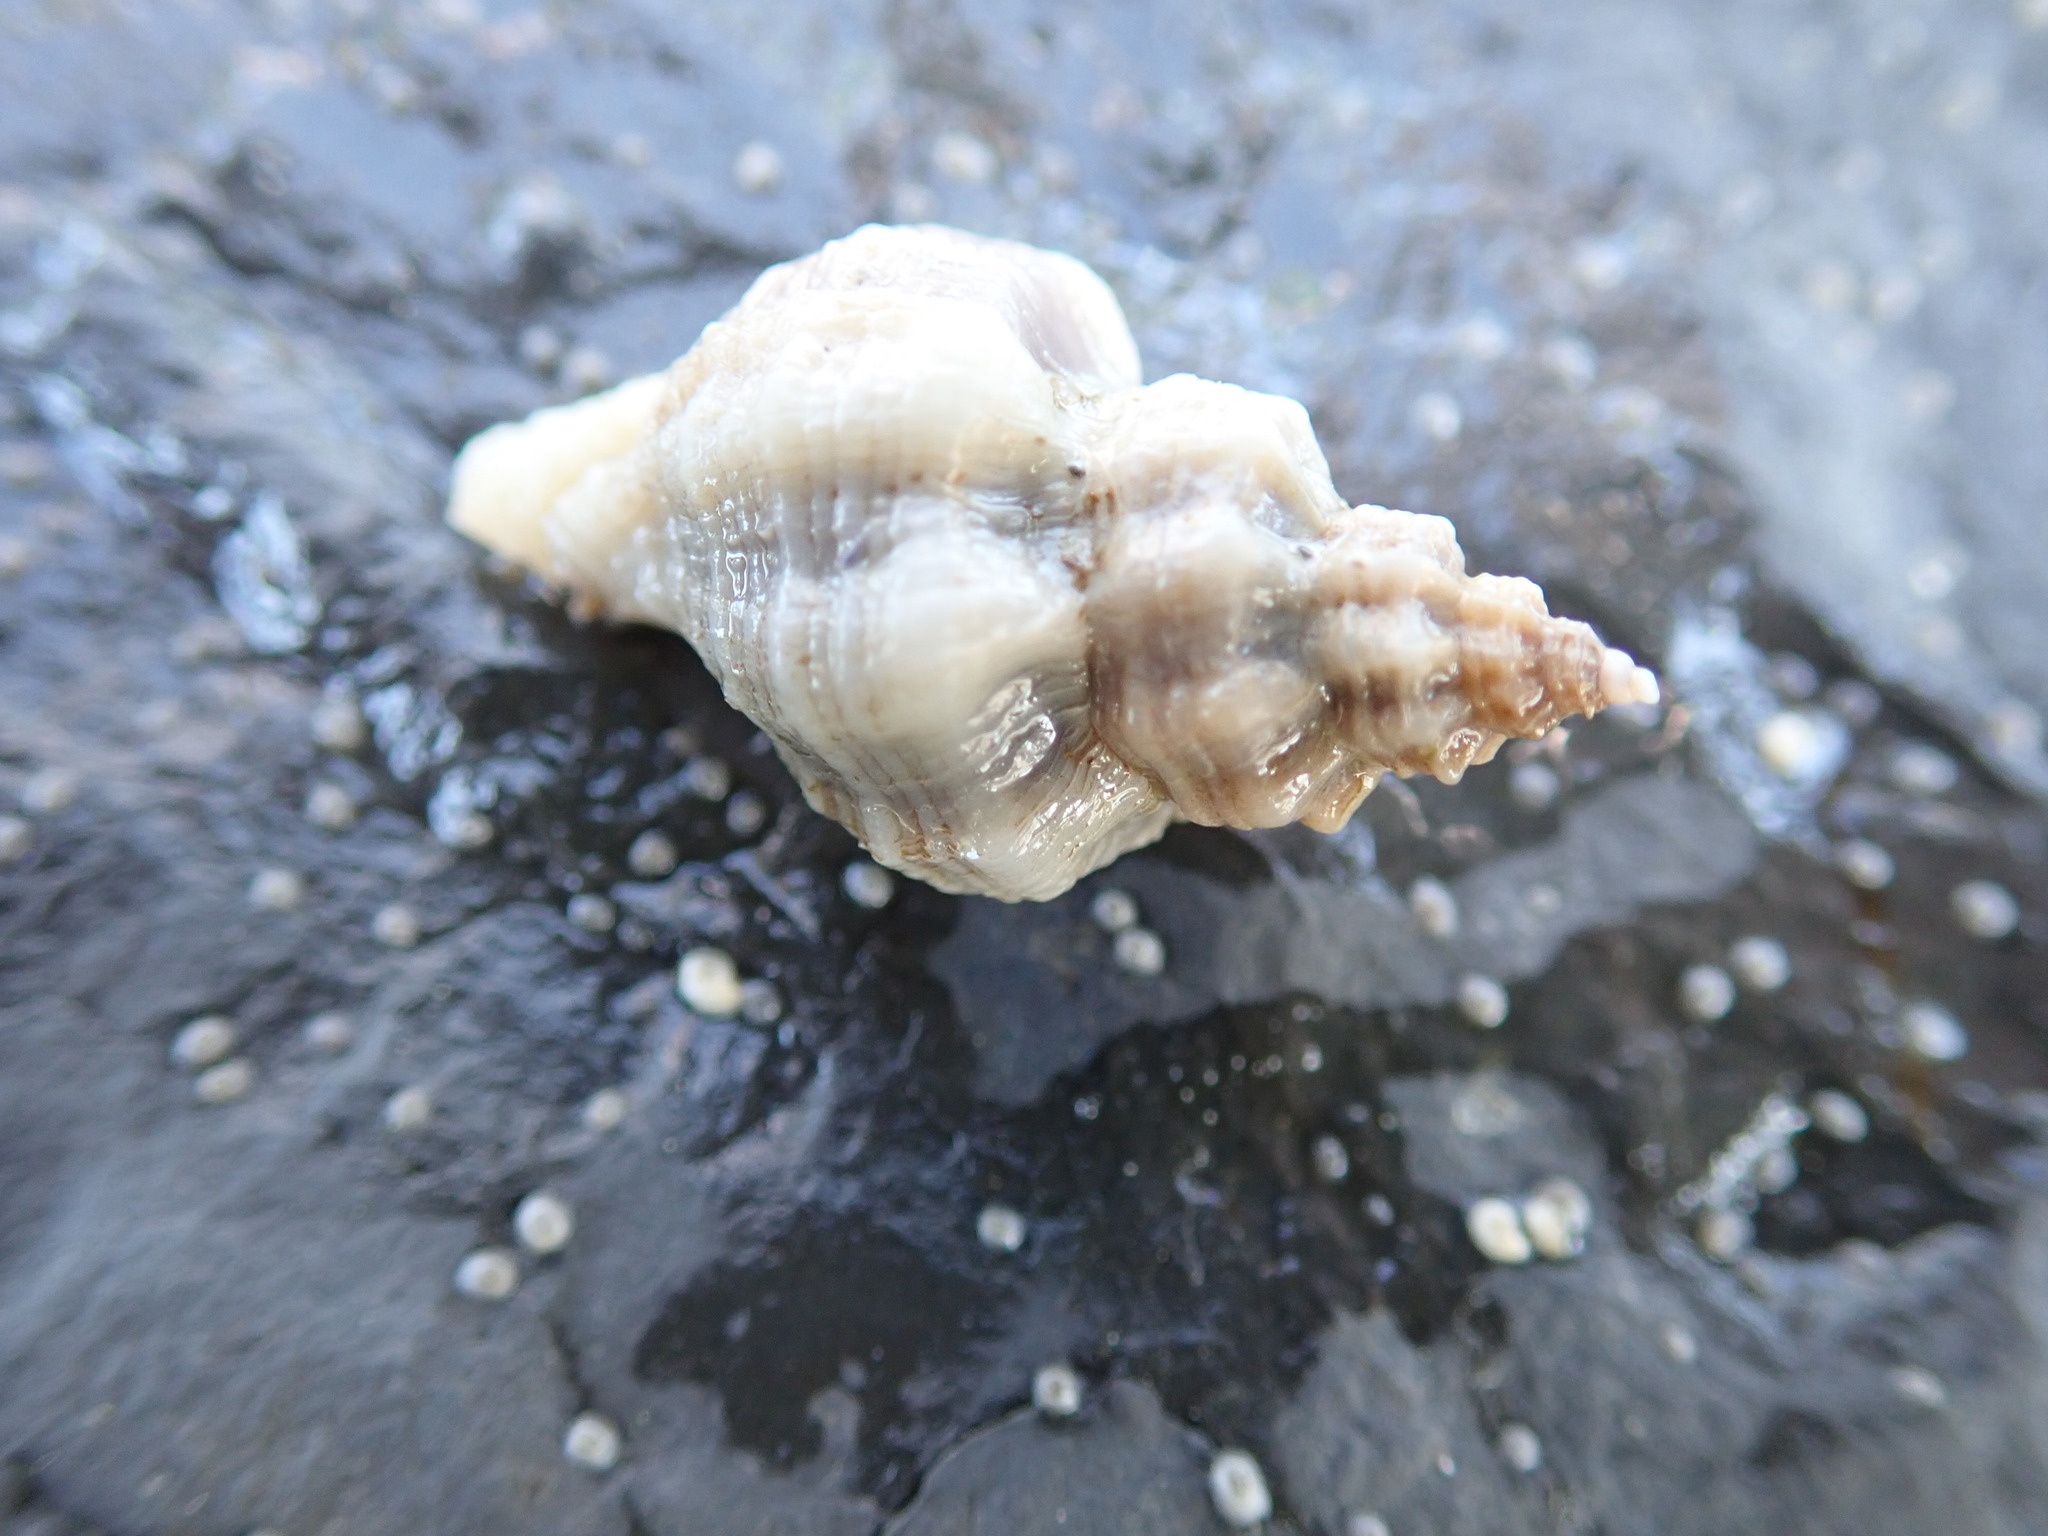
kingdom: Animalia
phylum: Mollusca
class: Gastropoda
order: Neogastropoda
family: Muricidae
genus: Ceratostoma
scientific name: Ceratostoma foliatum
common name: Foliate thorn purpura
